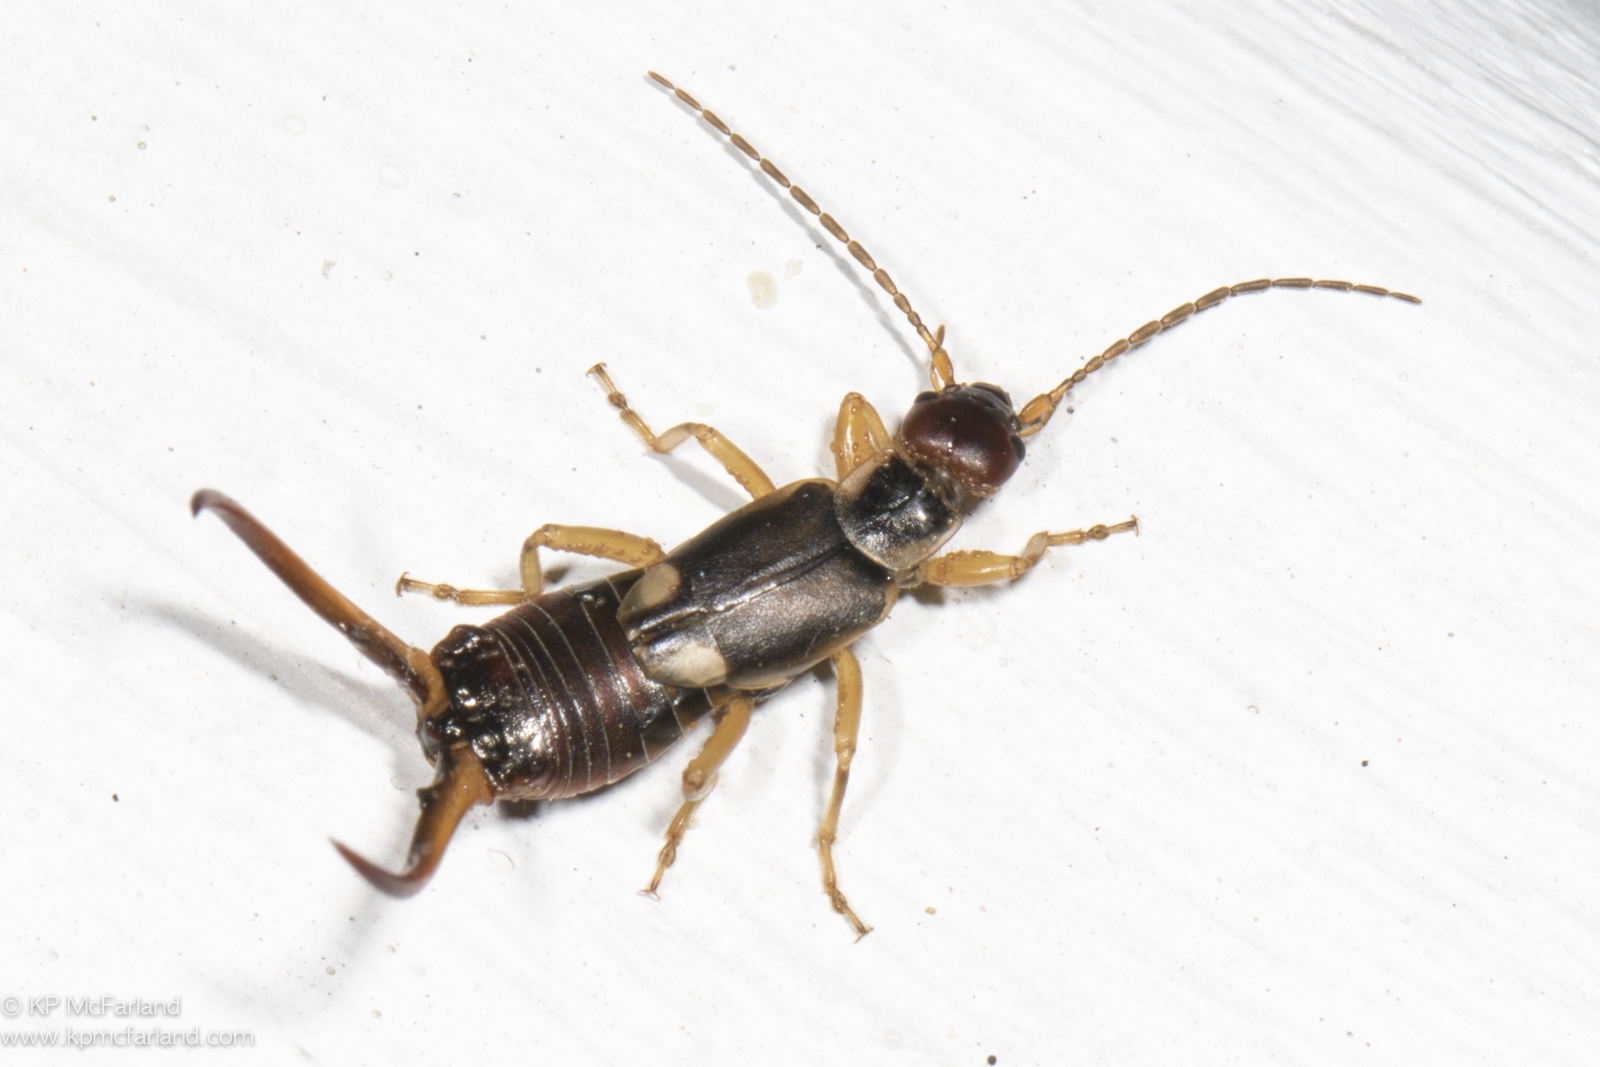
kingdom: Animalia
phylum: Arthropoda
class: Insecta
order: Dermaptera
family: Forficulidae
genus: Forficula
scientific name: Forficula
